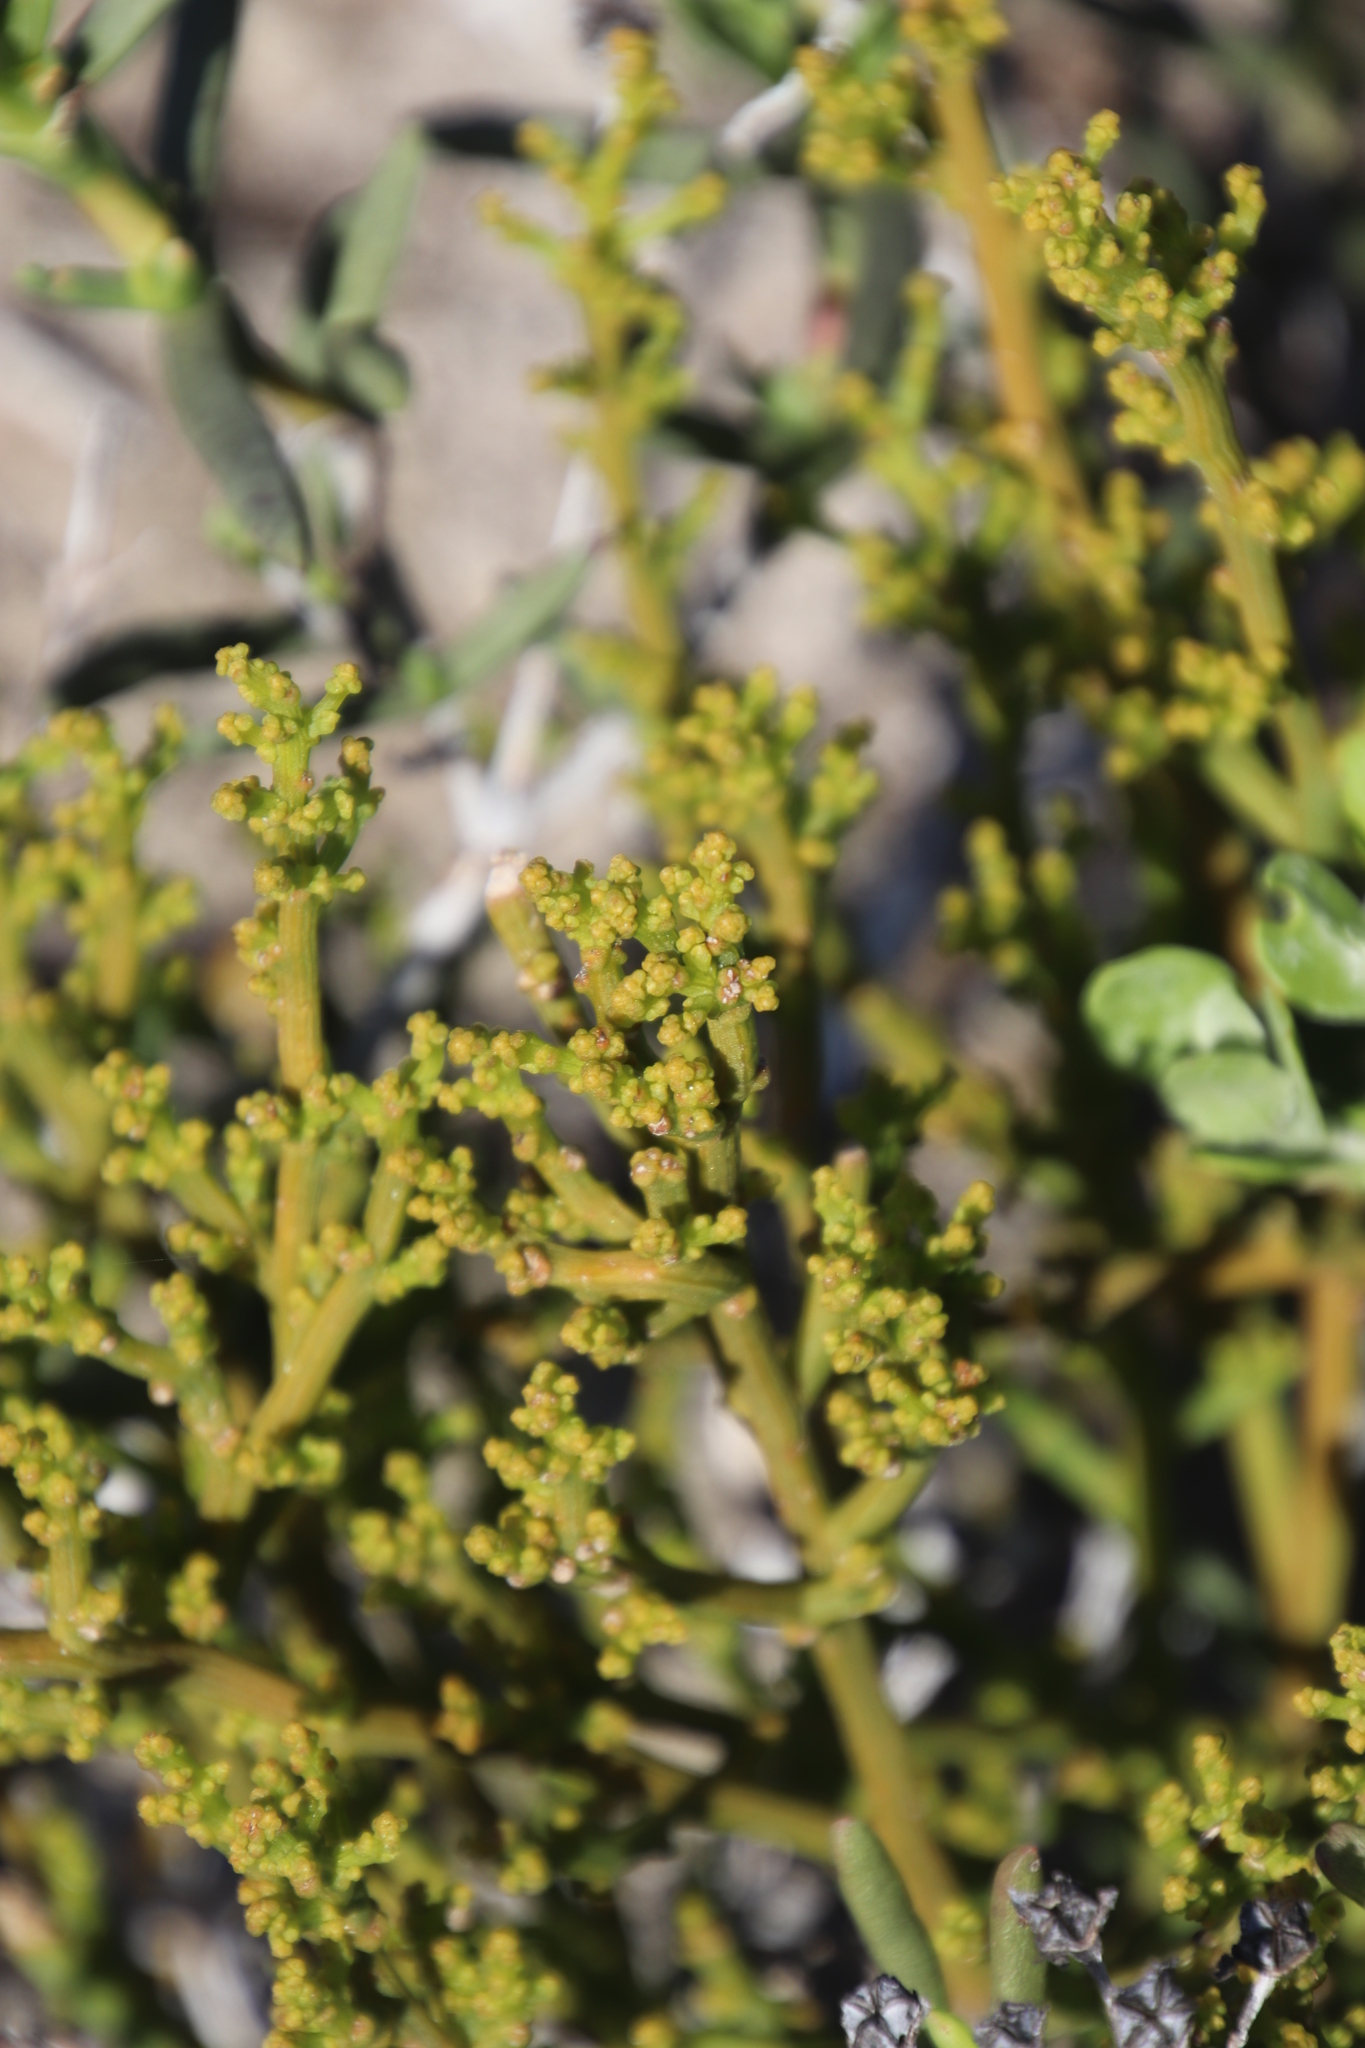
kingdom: Plantae
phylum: Tracheophyta
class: Magnoliopsida
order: Santalales
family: Thesiaceae
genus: Thesium
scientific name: Thesium fragile
